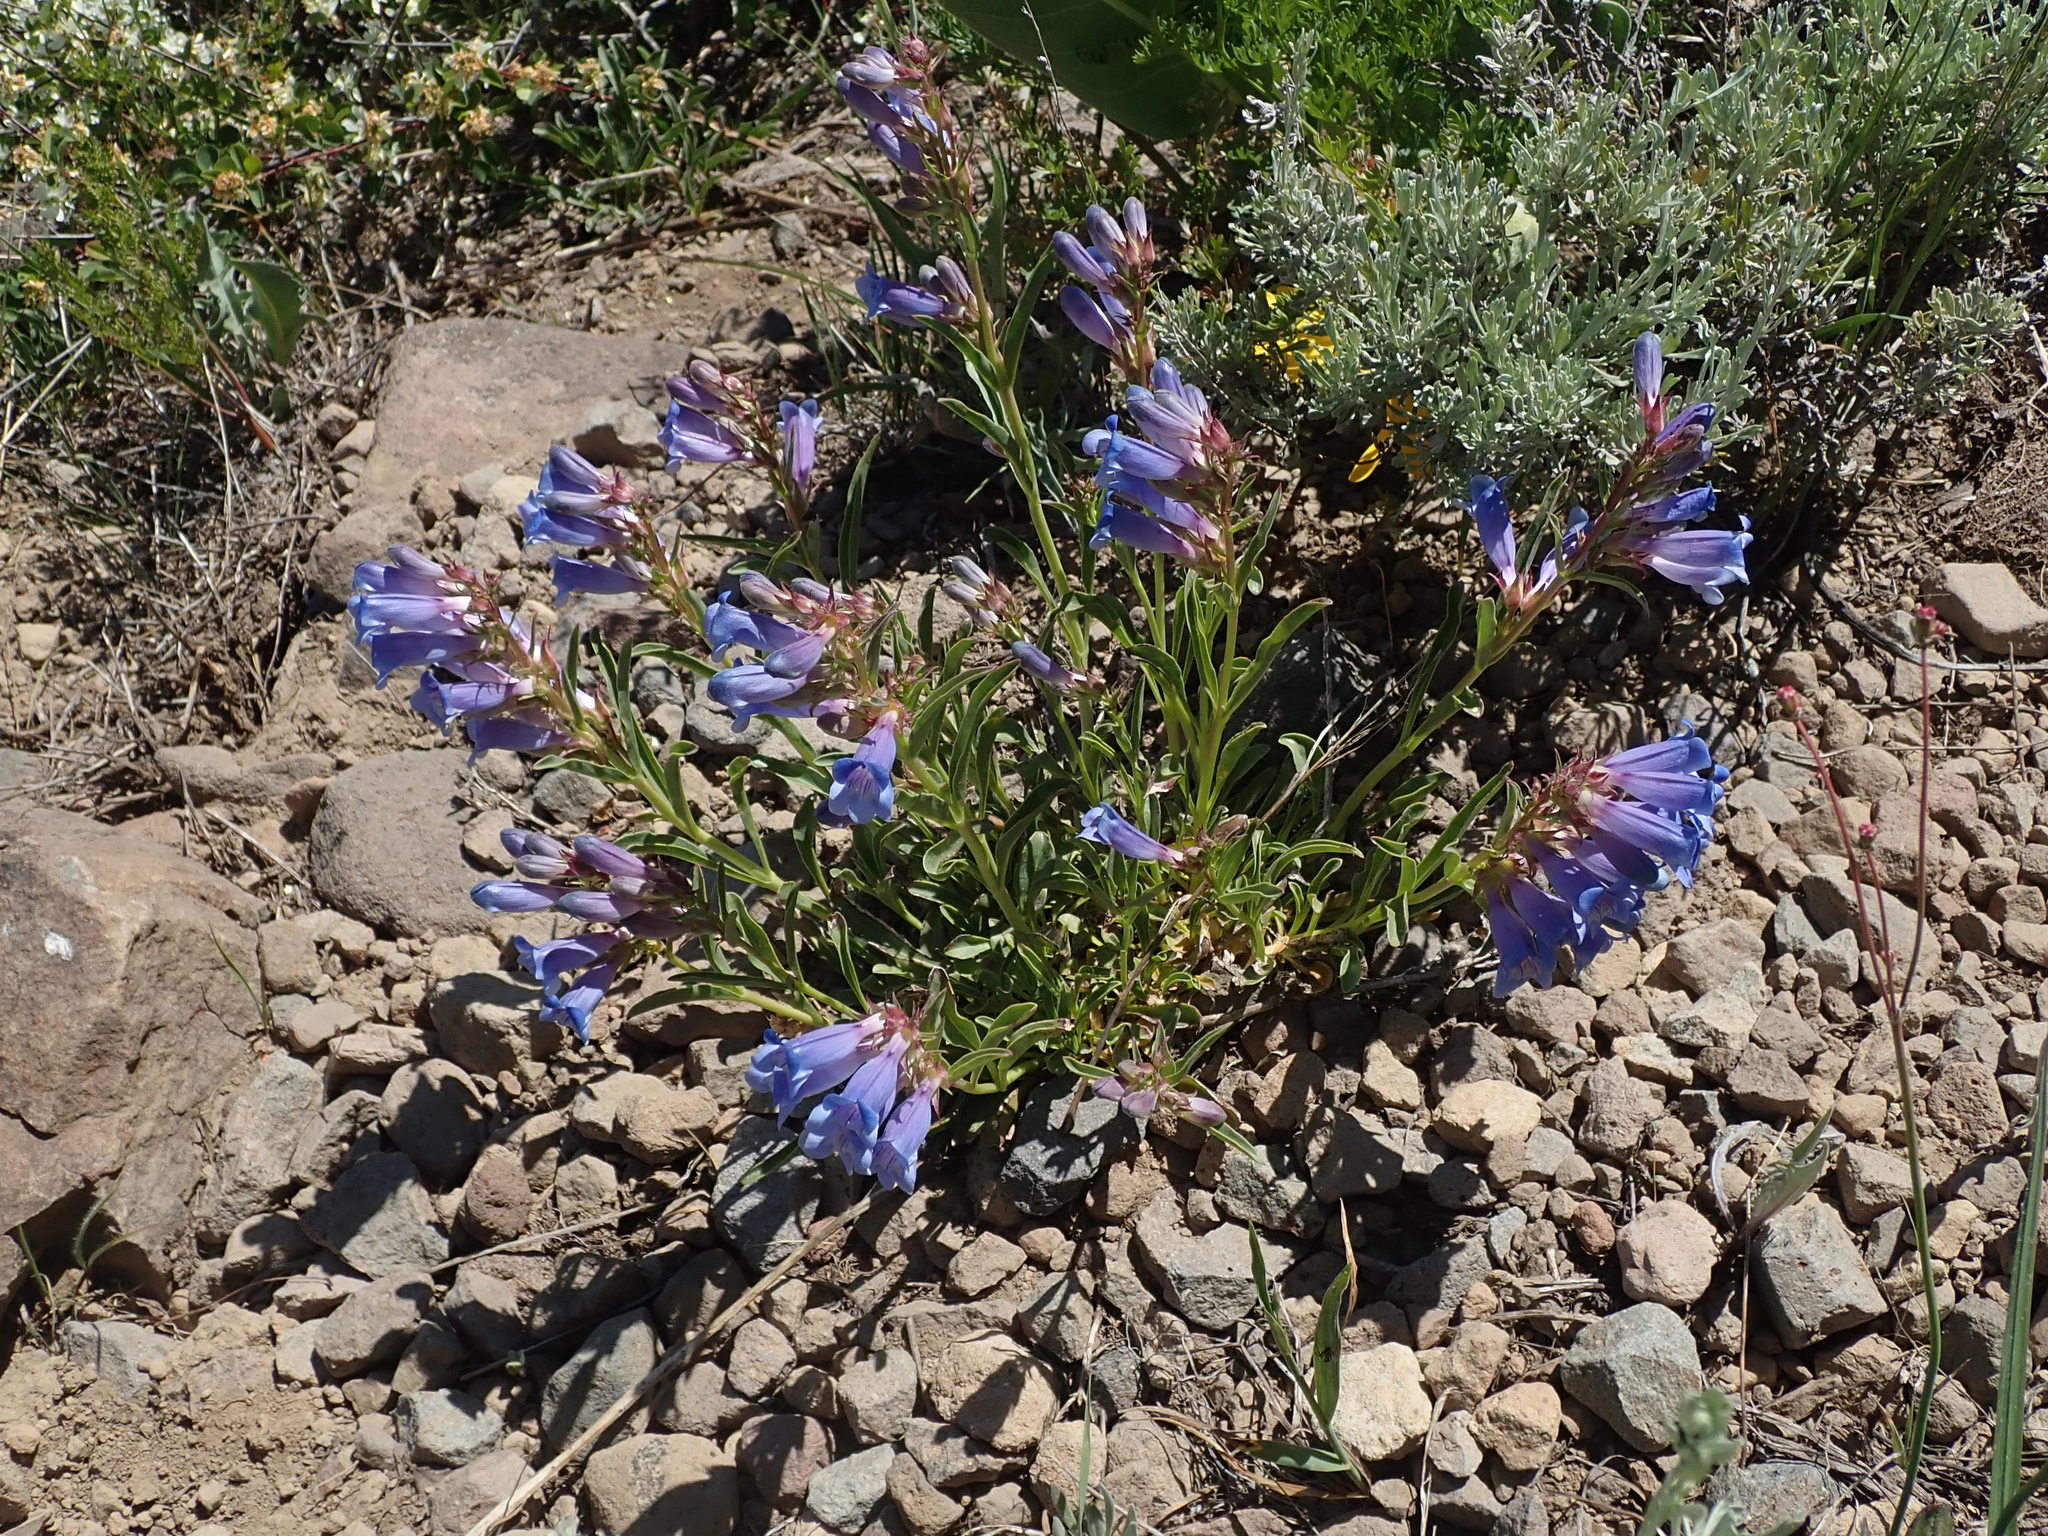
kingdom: Plantae
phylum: Tracheophyta
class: Magnoliopsida
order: Lamiales
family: Plantaginaceae
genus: Penstemon
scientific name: Penstemon speciosus
